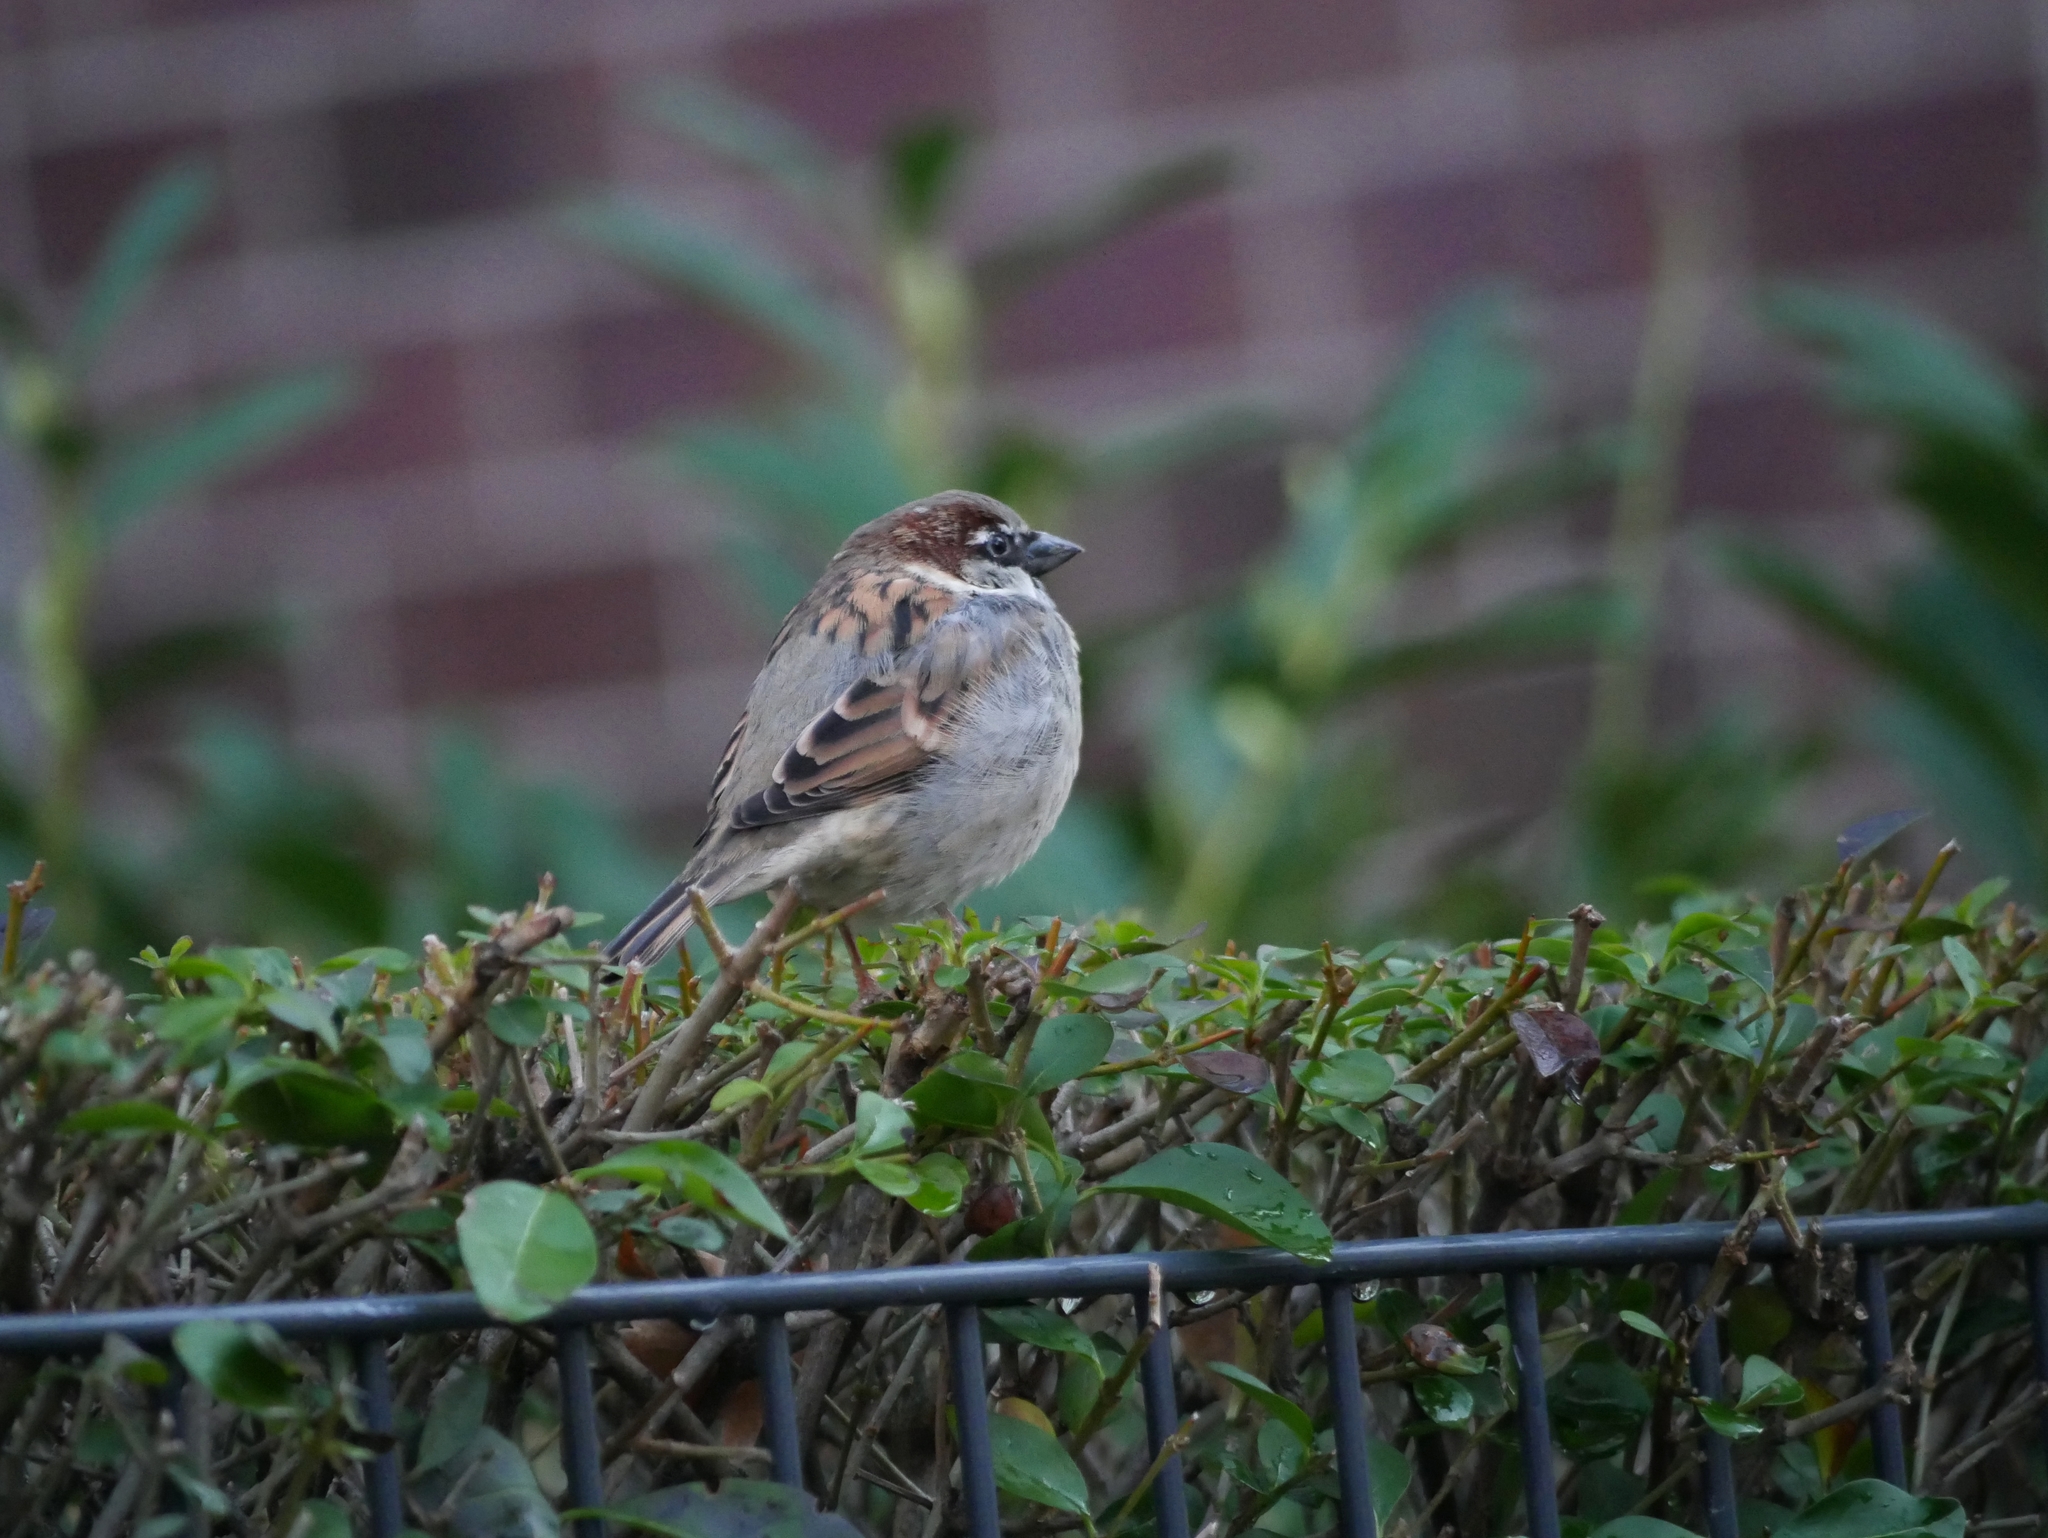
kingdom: Animalia
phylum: Chordata
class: Aves
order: Passeriformes
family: Passeridae
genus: Passer
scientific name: Passer domesticus
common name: House sparrow
